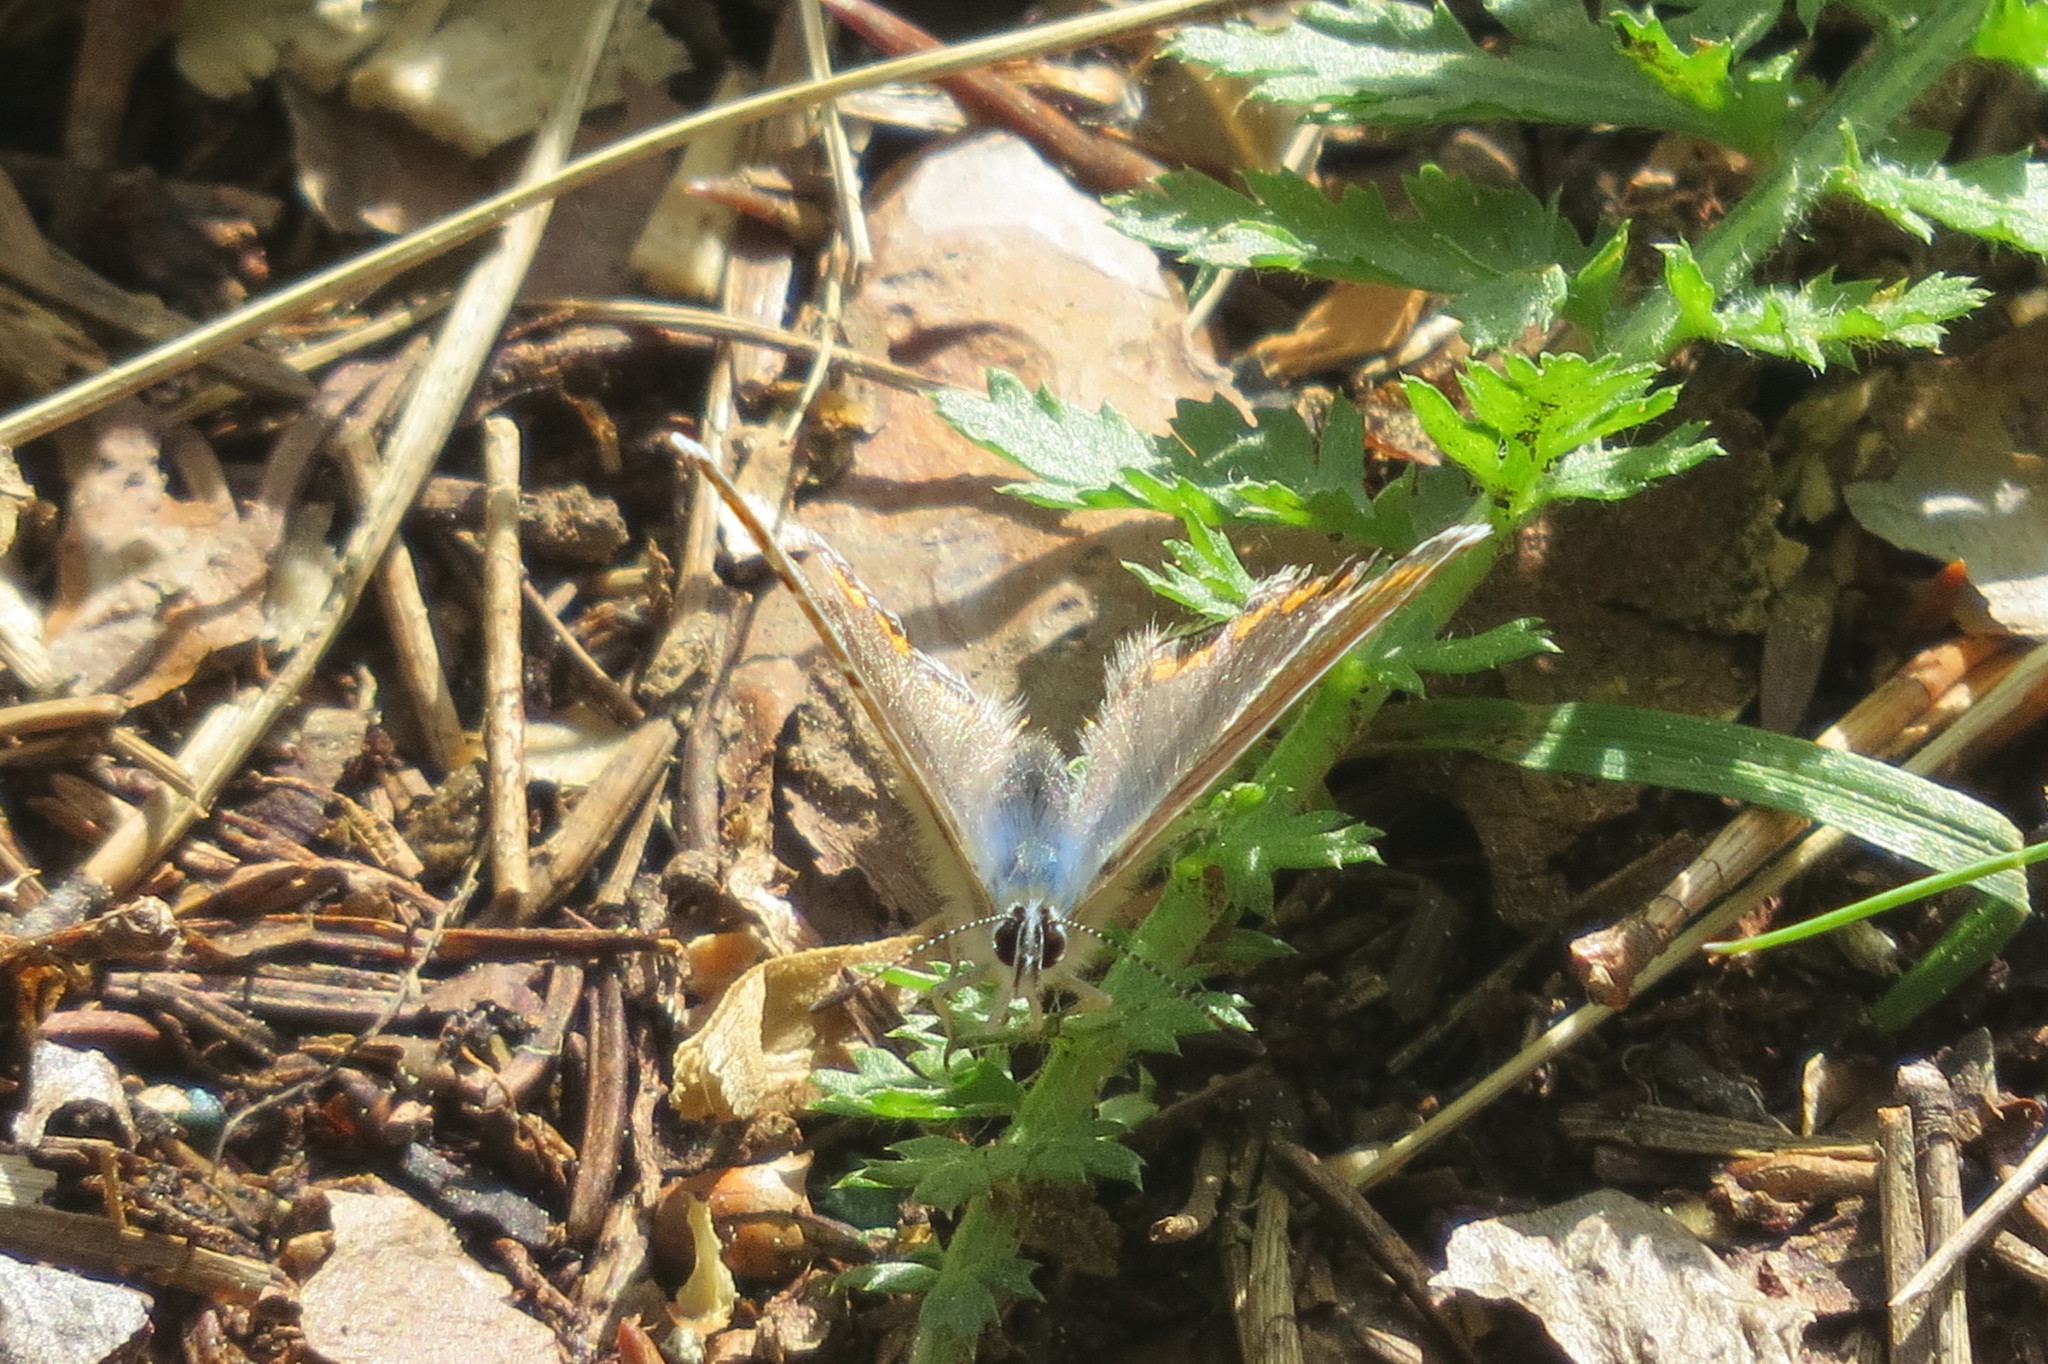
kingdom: Animalia
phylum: Arthropoda
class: Insecta
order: Lepidoptera
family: Lycaenidae
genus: Polyommatus
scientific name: Polyommatus icarus
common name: Common blue
